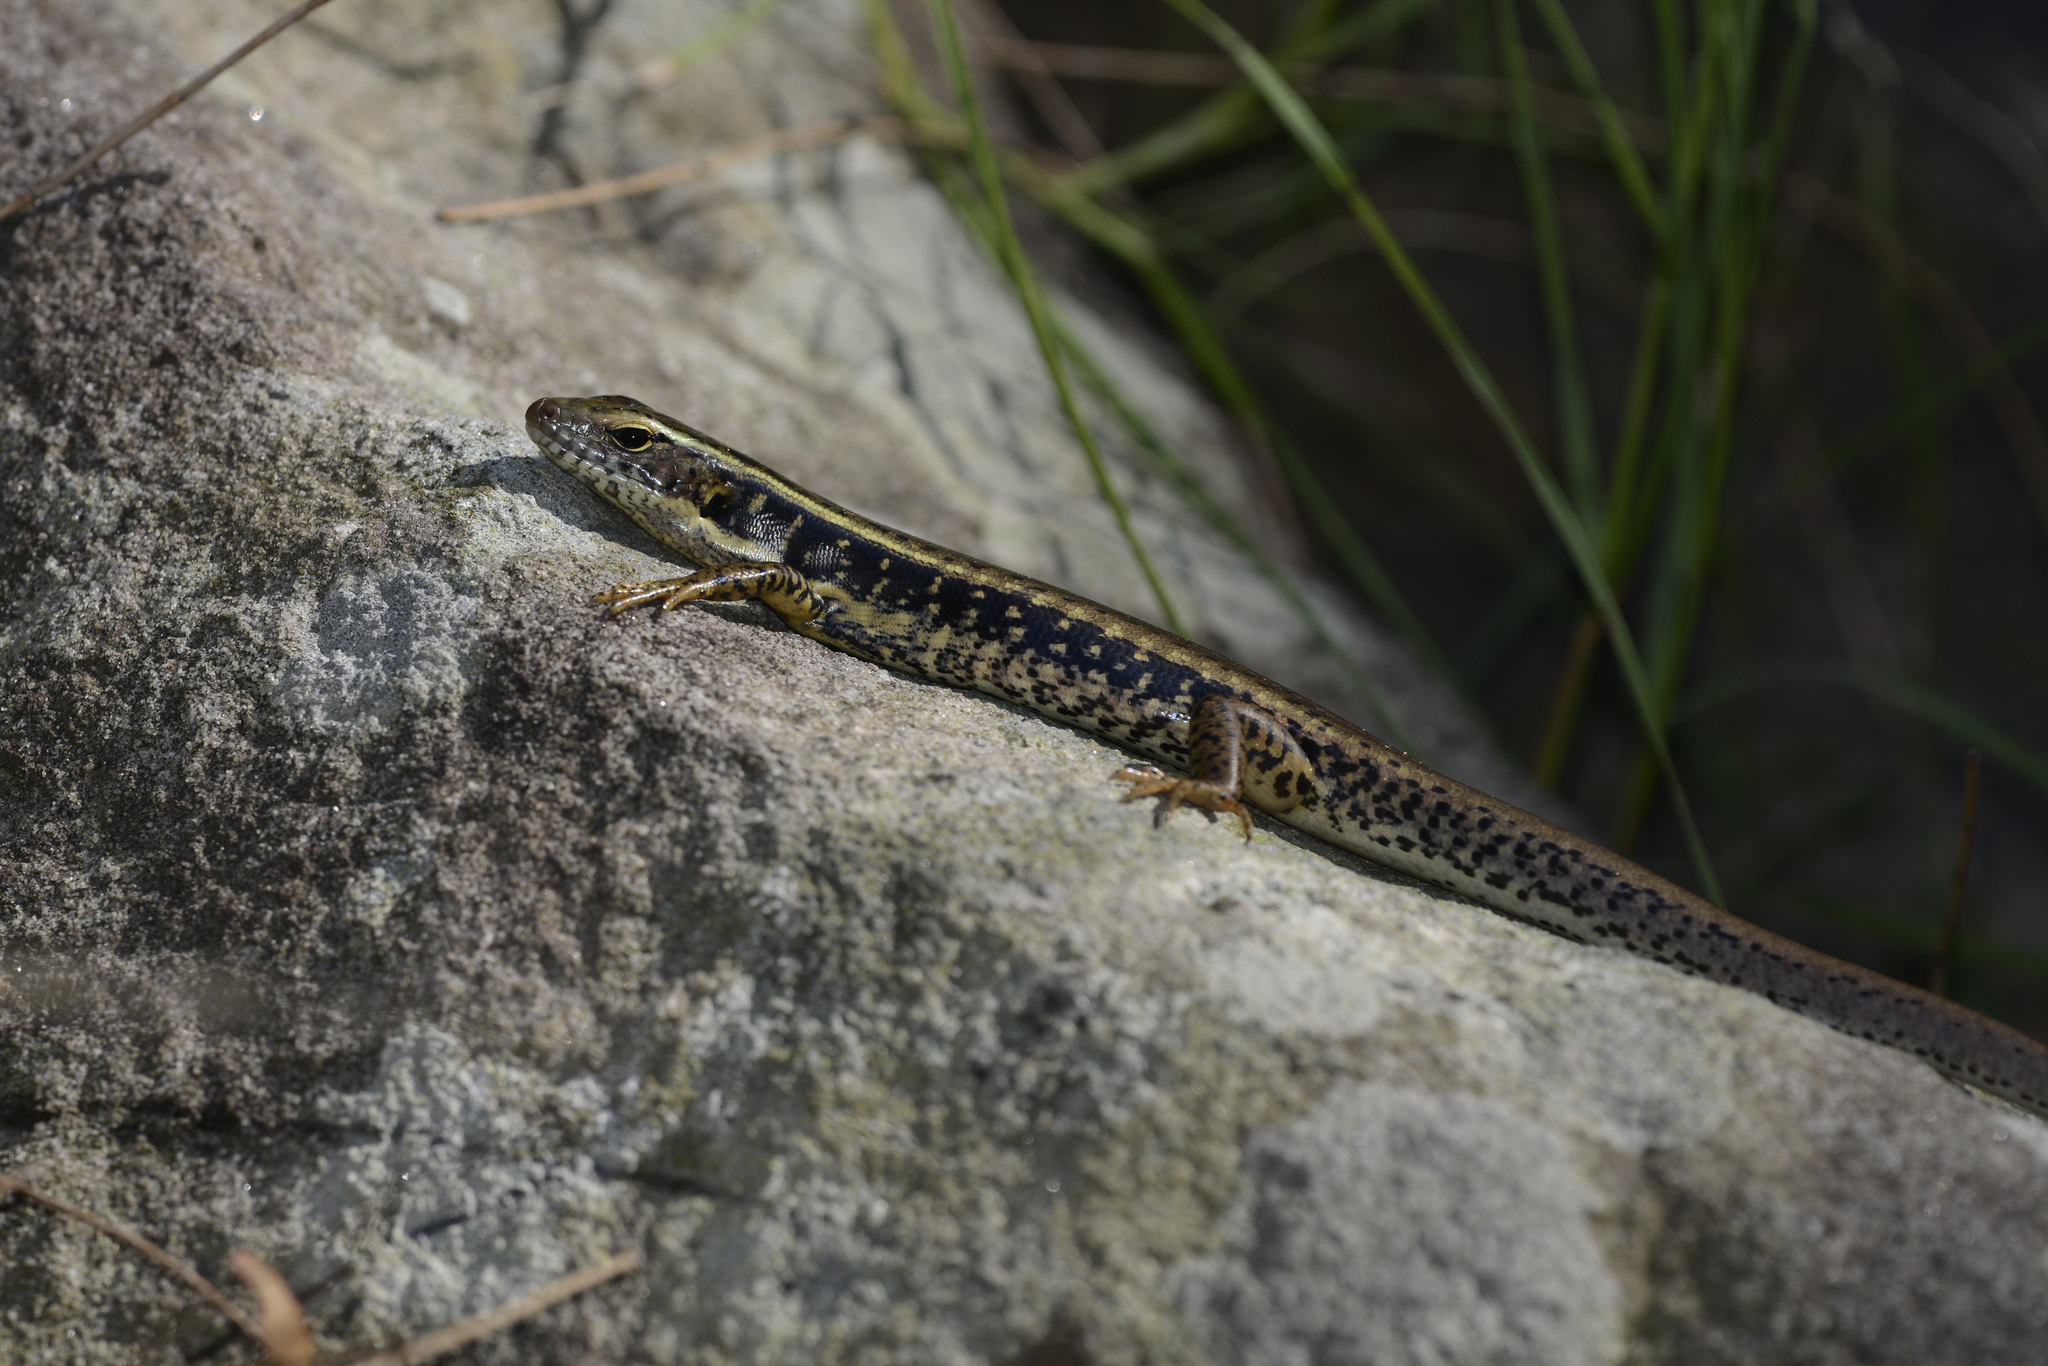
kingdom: Animalia
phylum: Chordata
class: Squamata
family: Scincidae
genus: Eulamprus
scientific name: Eulamprus quoyii
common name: Eastern water skink
